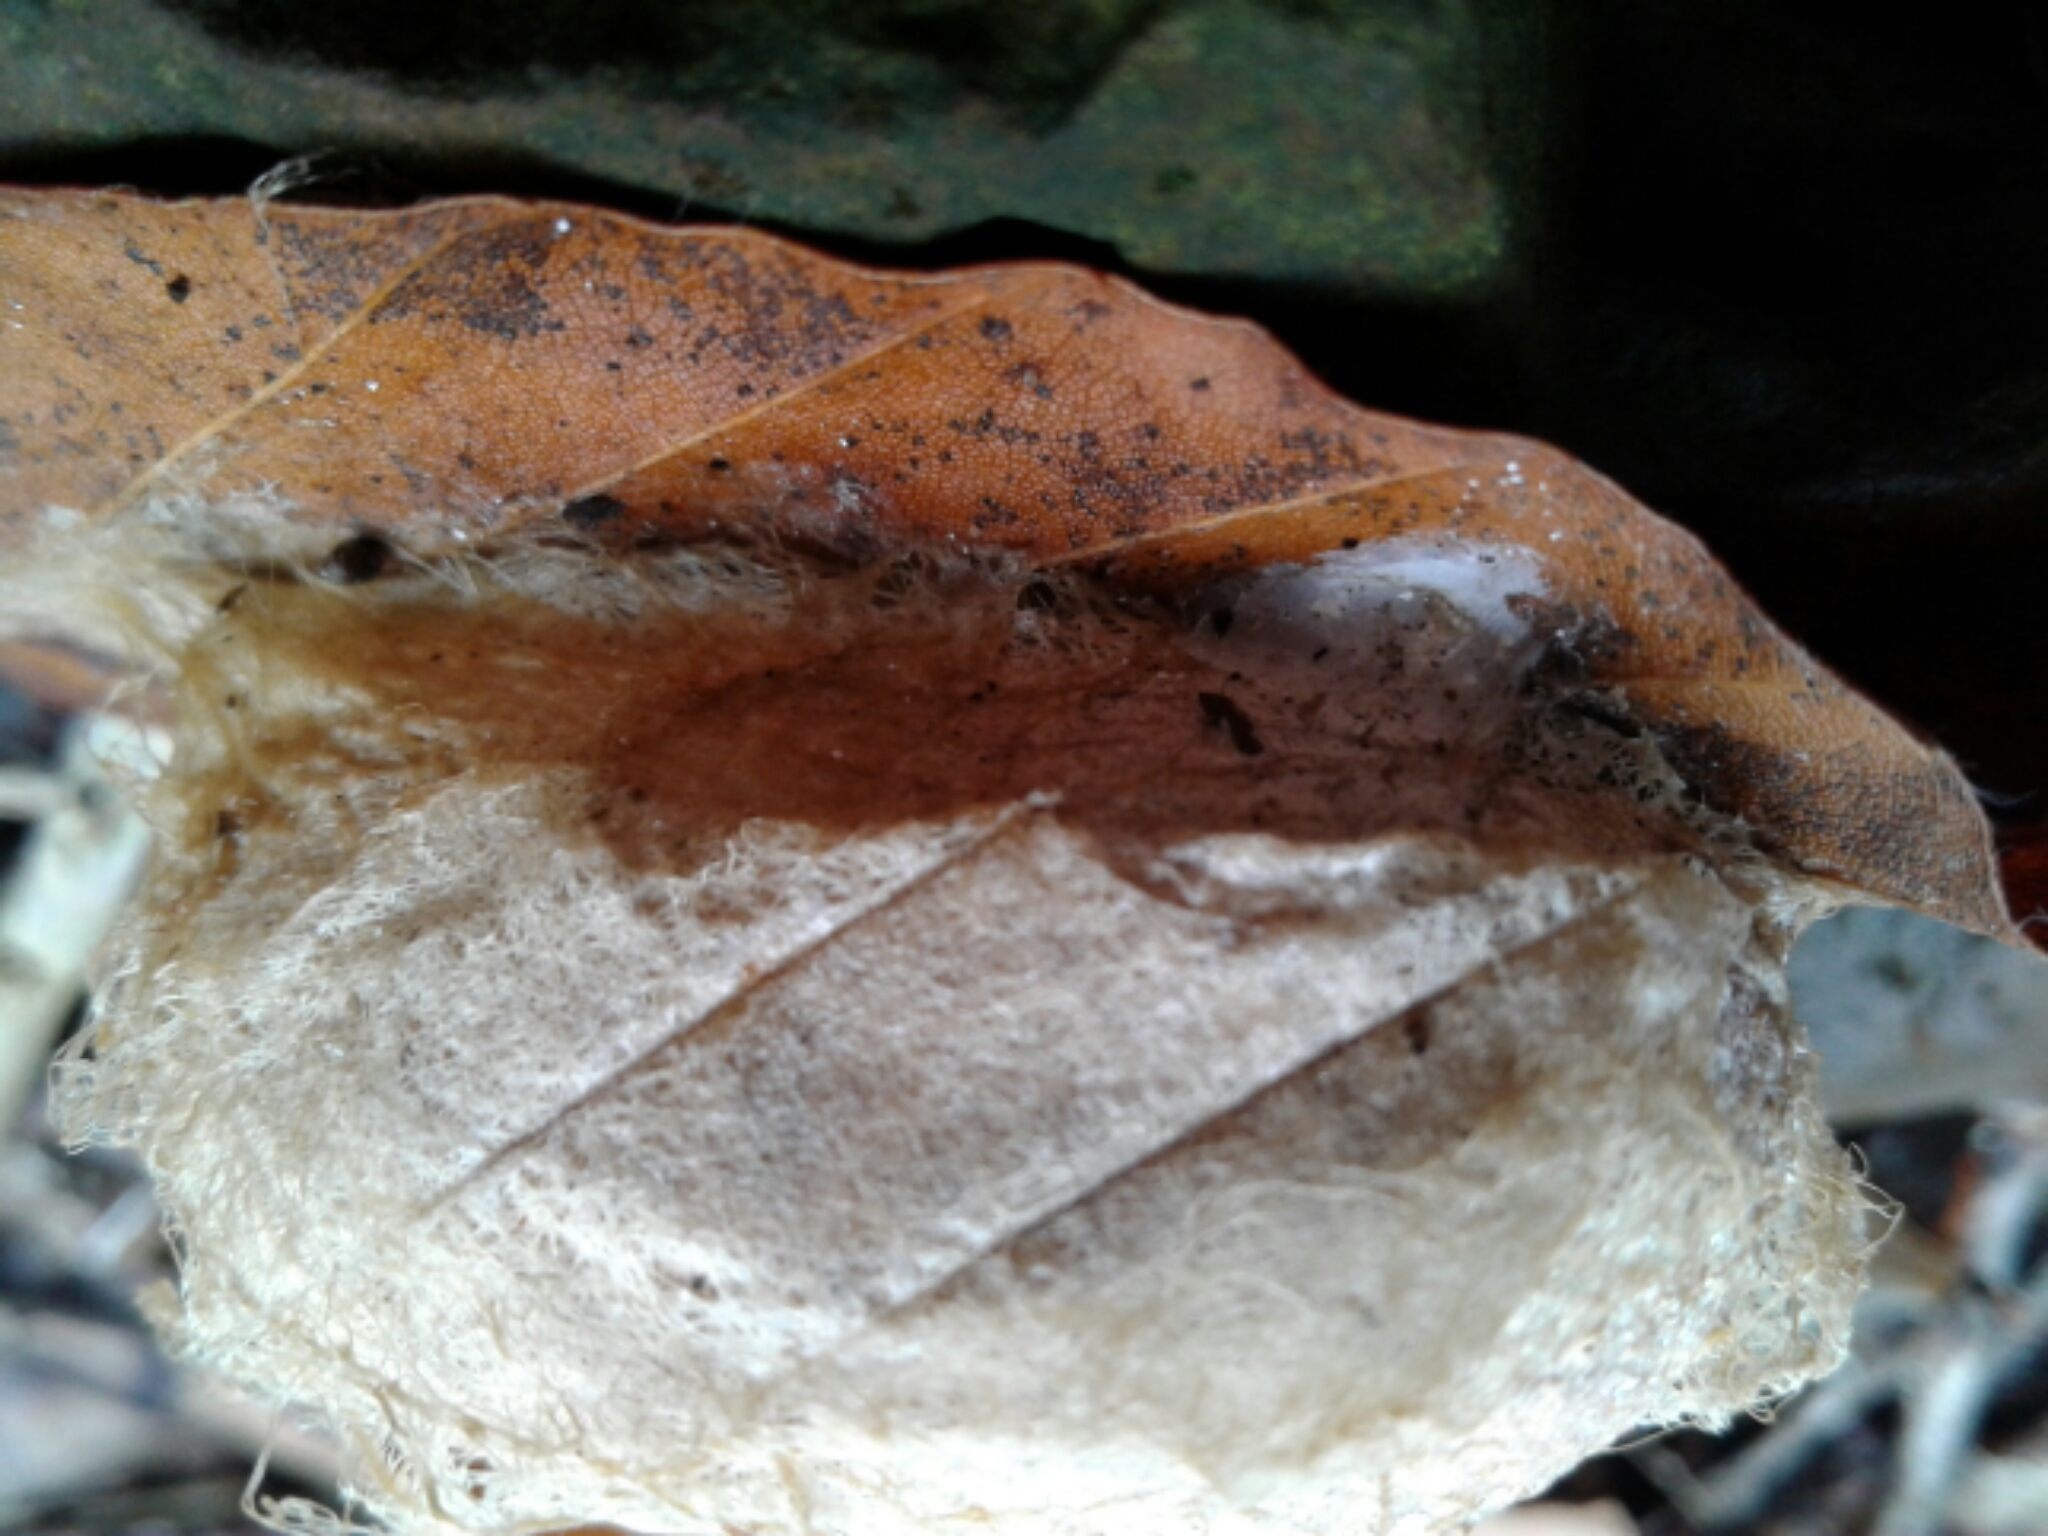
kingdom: Animalia
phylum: Arthropoda
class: Insecta
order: Lepidoptera
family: Saturniidae
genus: Antheraea
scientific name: Antheraea polyphemus
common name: Polyphemus moth
